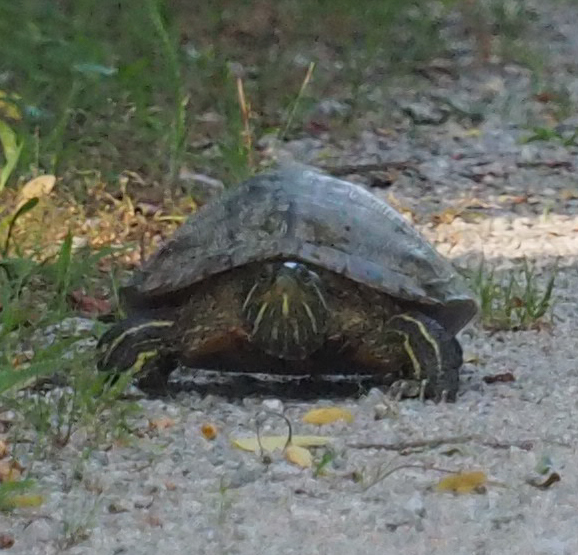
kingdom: Animalia
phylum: Chordata
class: Testudines
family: Emydidae
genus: Trachemys
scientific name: Trachemys scripta
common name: Slider
